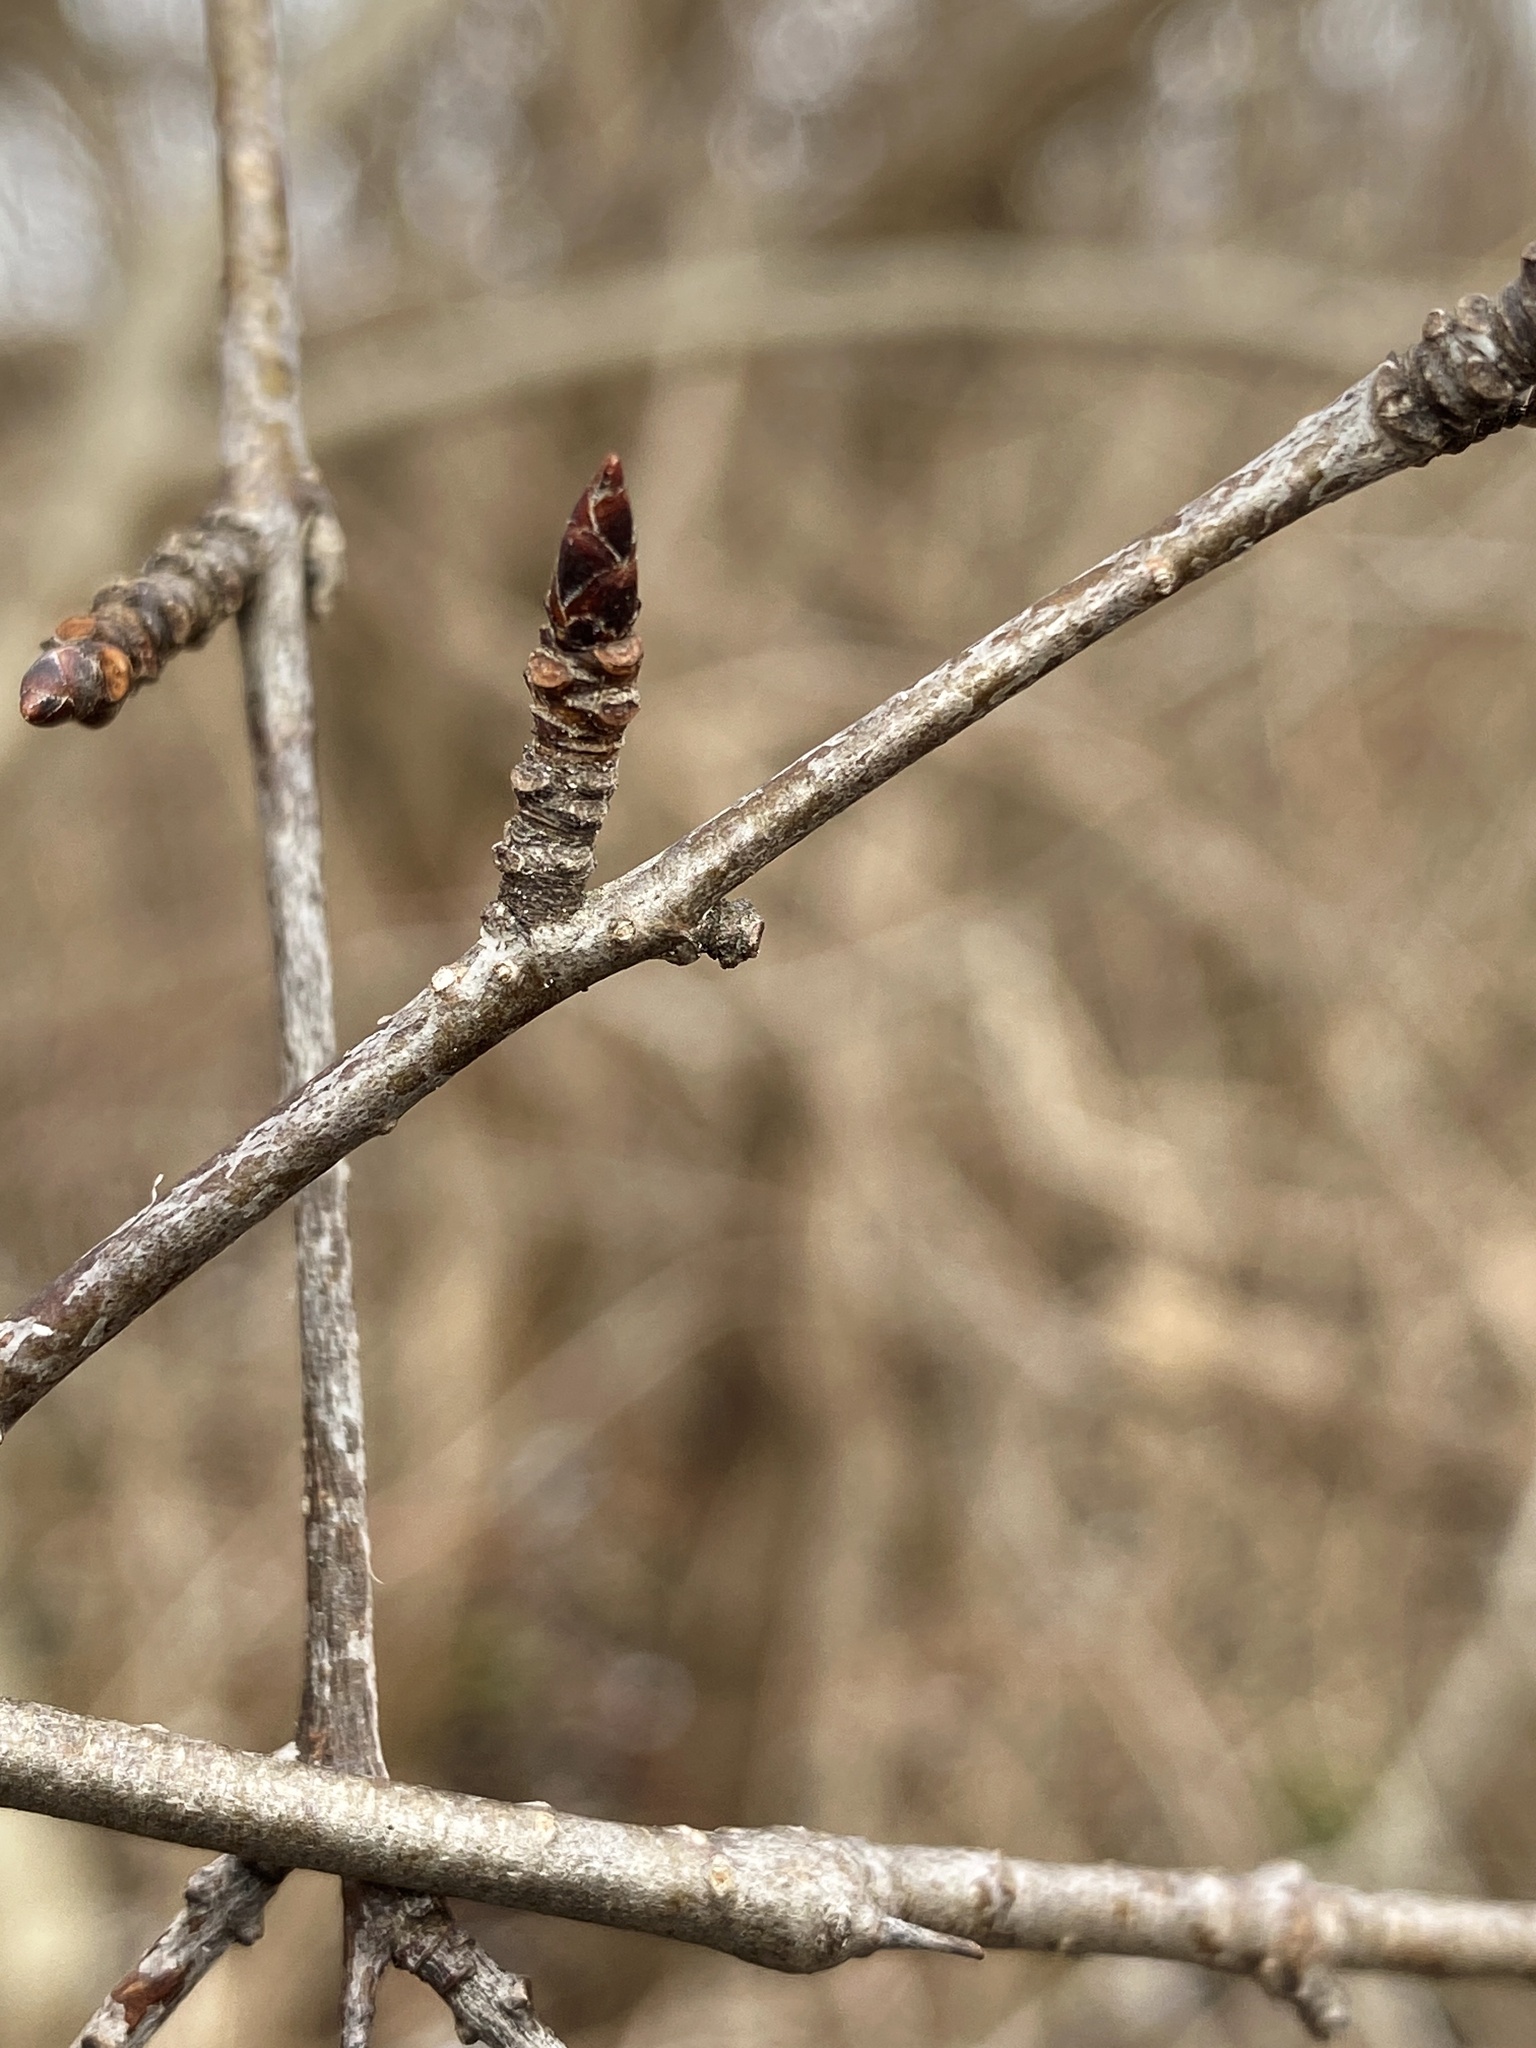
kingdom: Plantae
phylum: Tracheophyta
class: Magnoliopsida
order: Rosales
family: Rhamnaceae
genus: Rhamnus
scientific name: Rhamnus cathartica
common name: Common buckthorn
